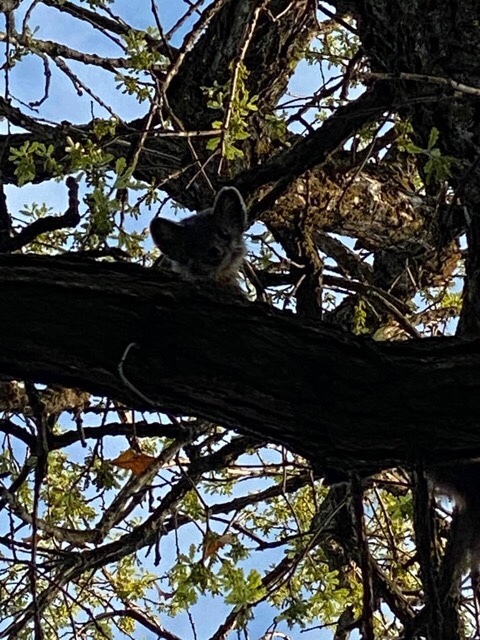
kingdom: Animalia
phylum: Chordata
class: Mammalia
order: Carnivora
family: Mustelidae
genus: Martes
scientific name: Martes americana
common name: American marten
